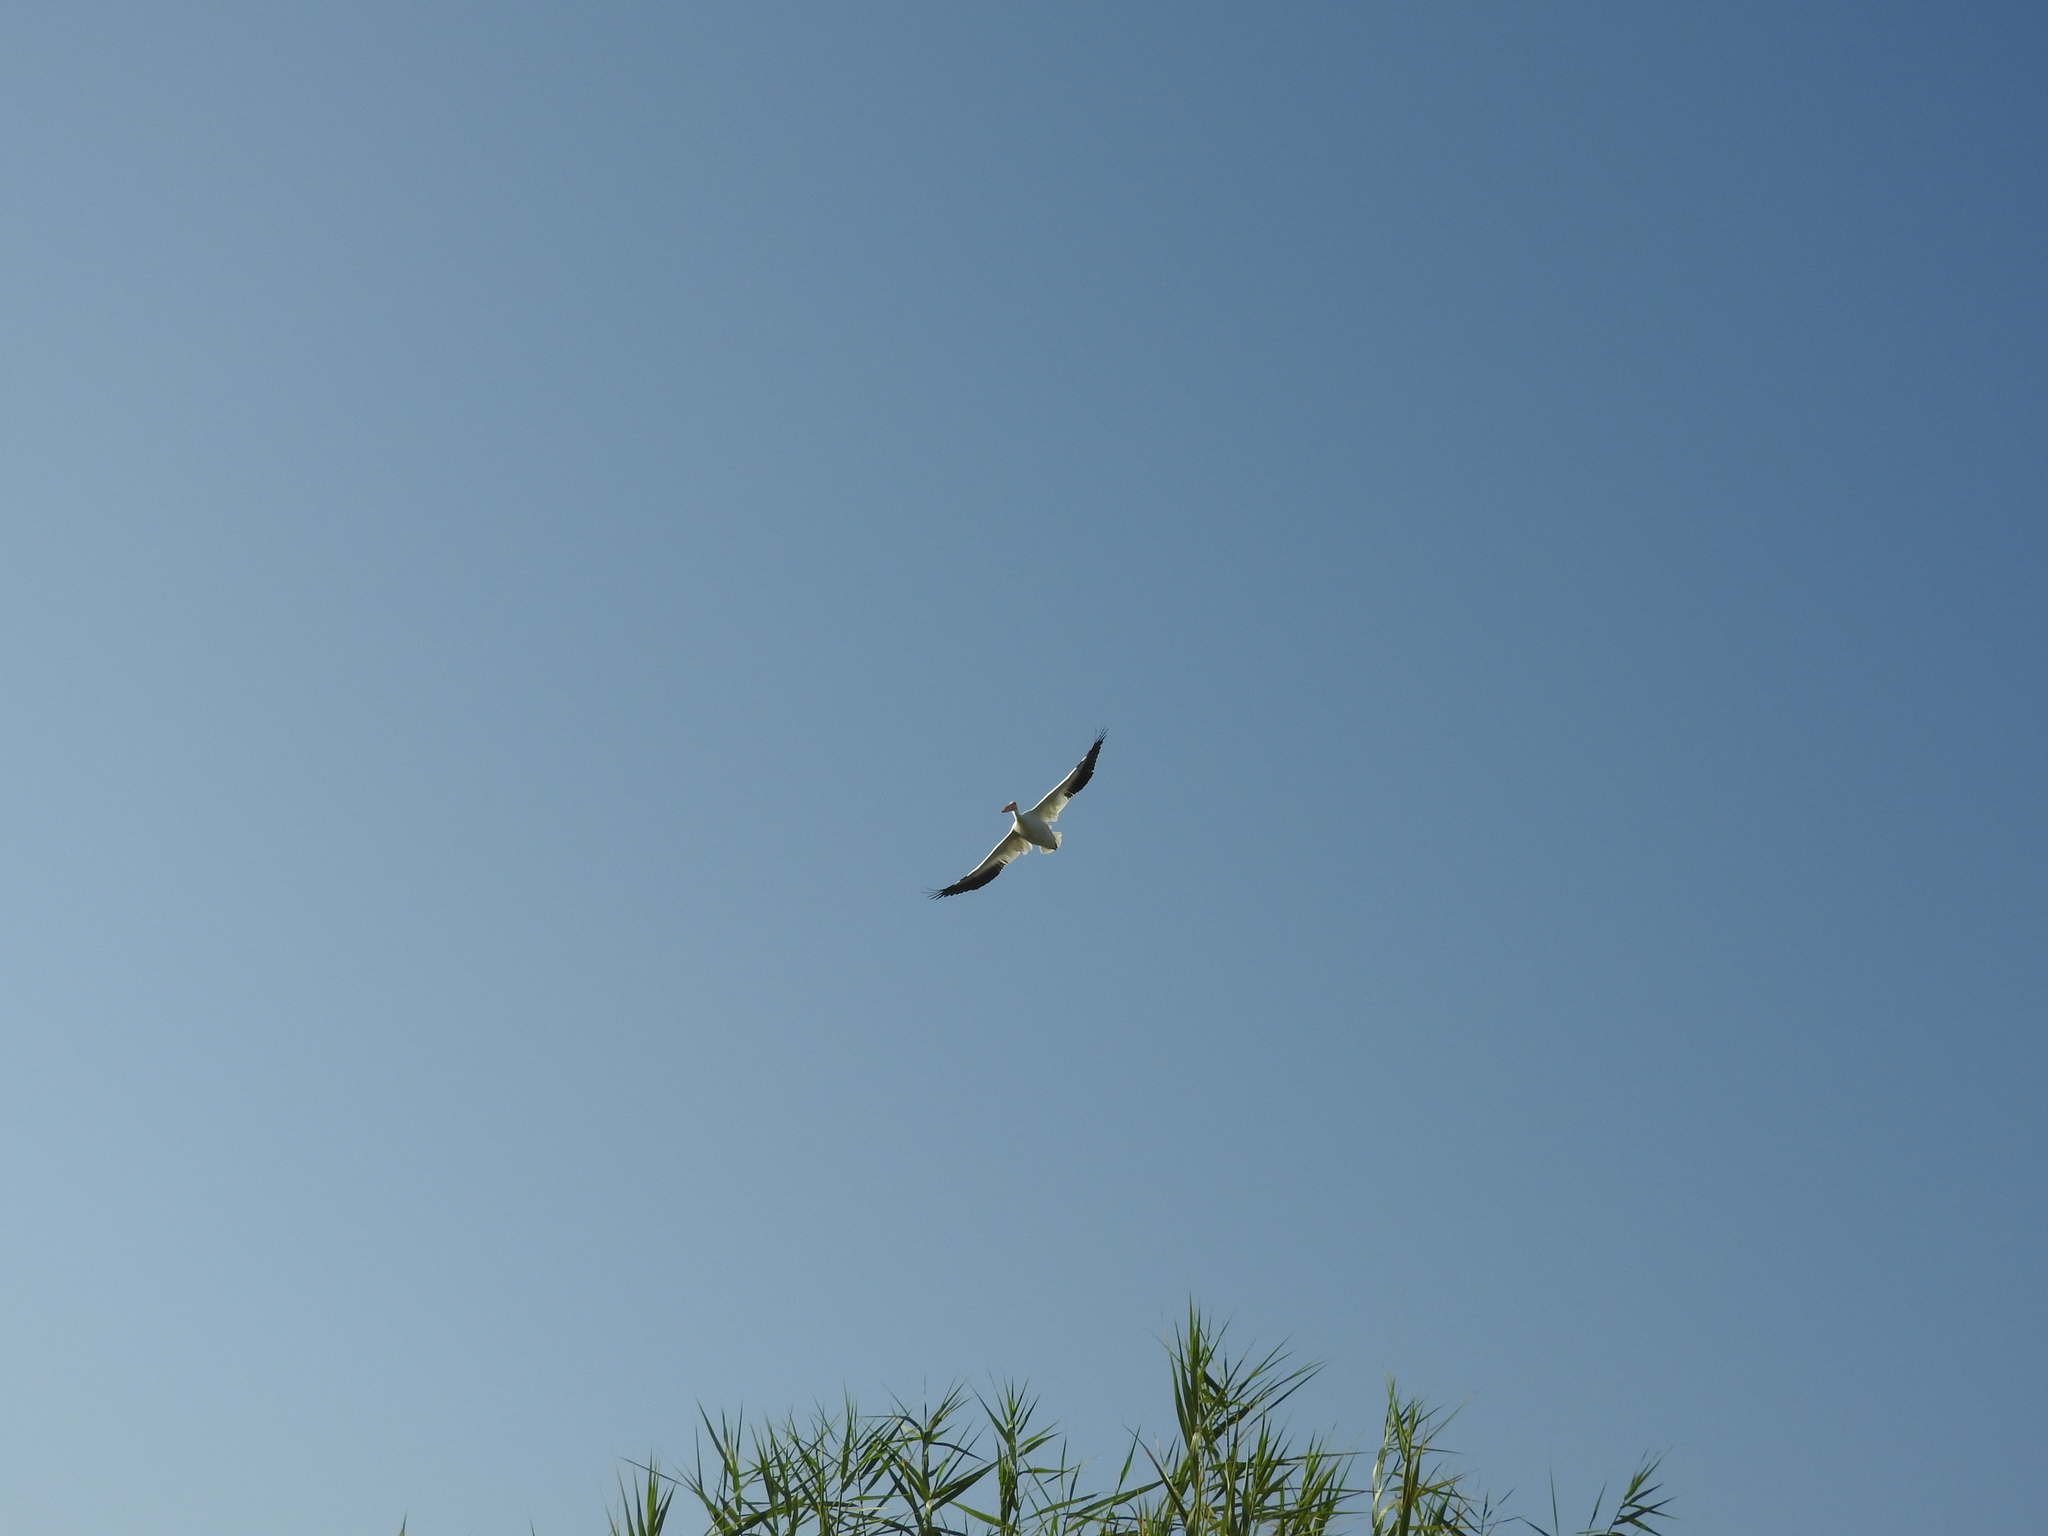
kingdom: Animalia
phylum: Chordata
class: Aves
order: Pelecaniformes
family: Pelecanidae
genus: Pelecanus
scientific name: Pelecanus erythrorhynchos
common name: American white pelican
